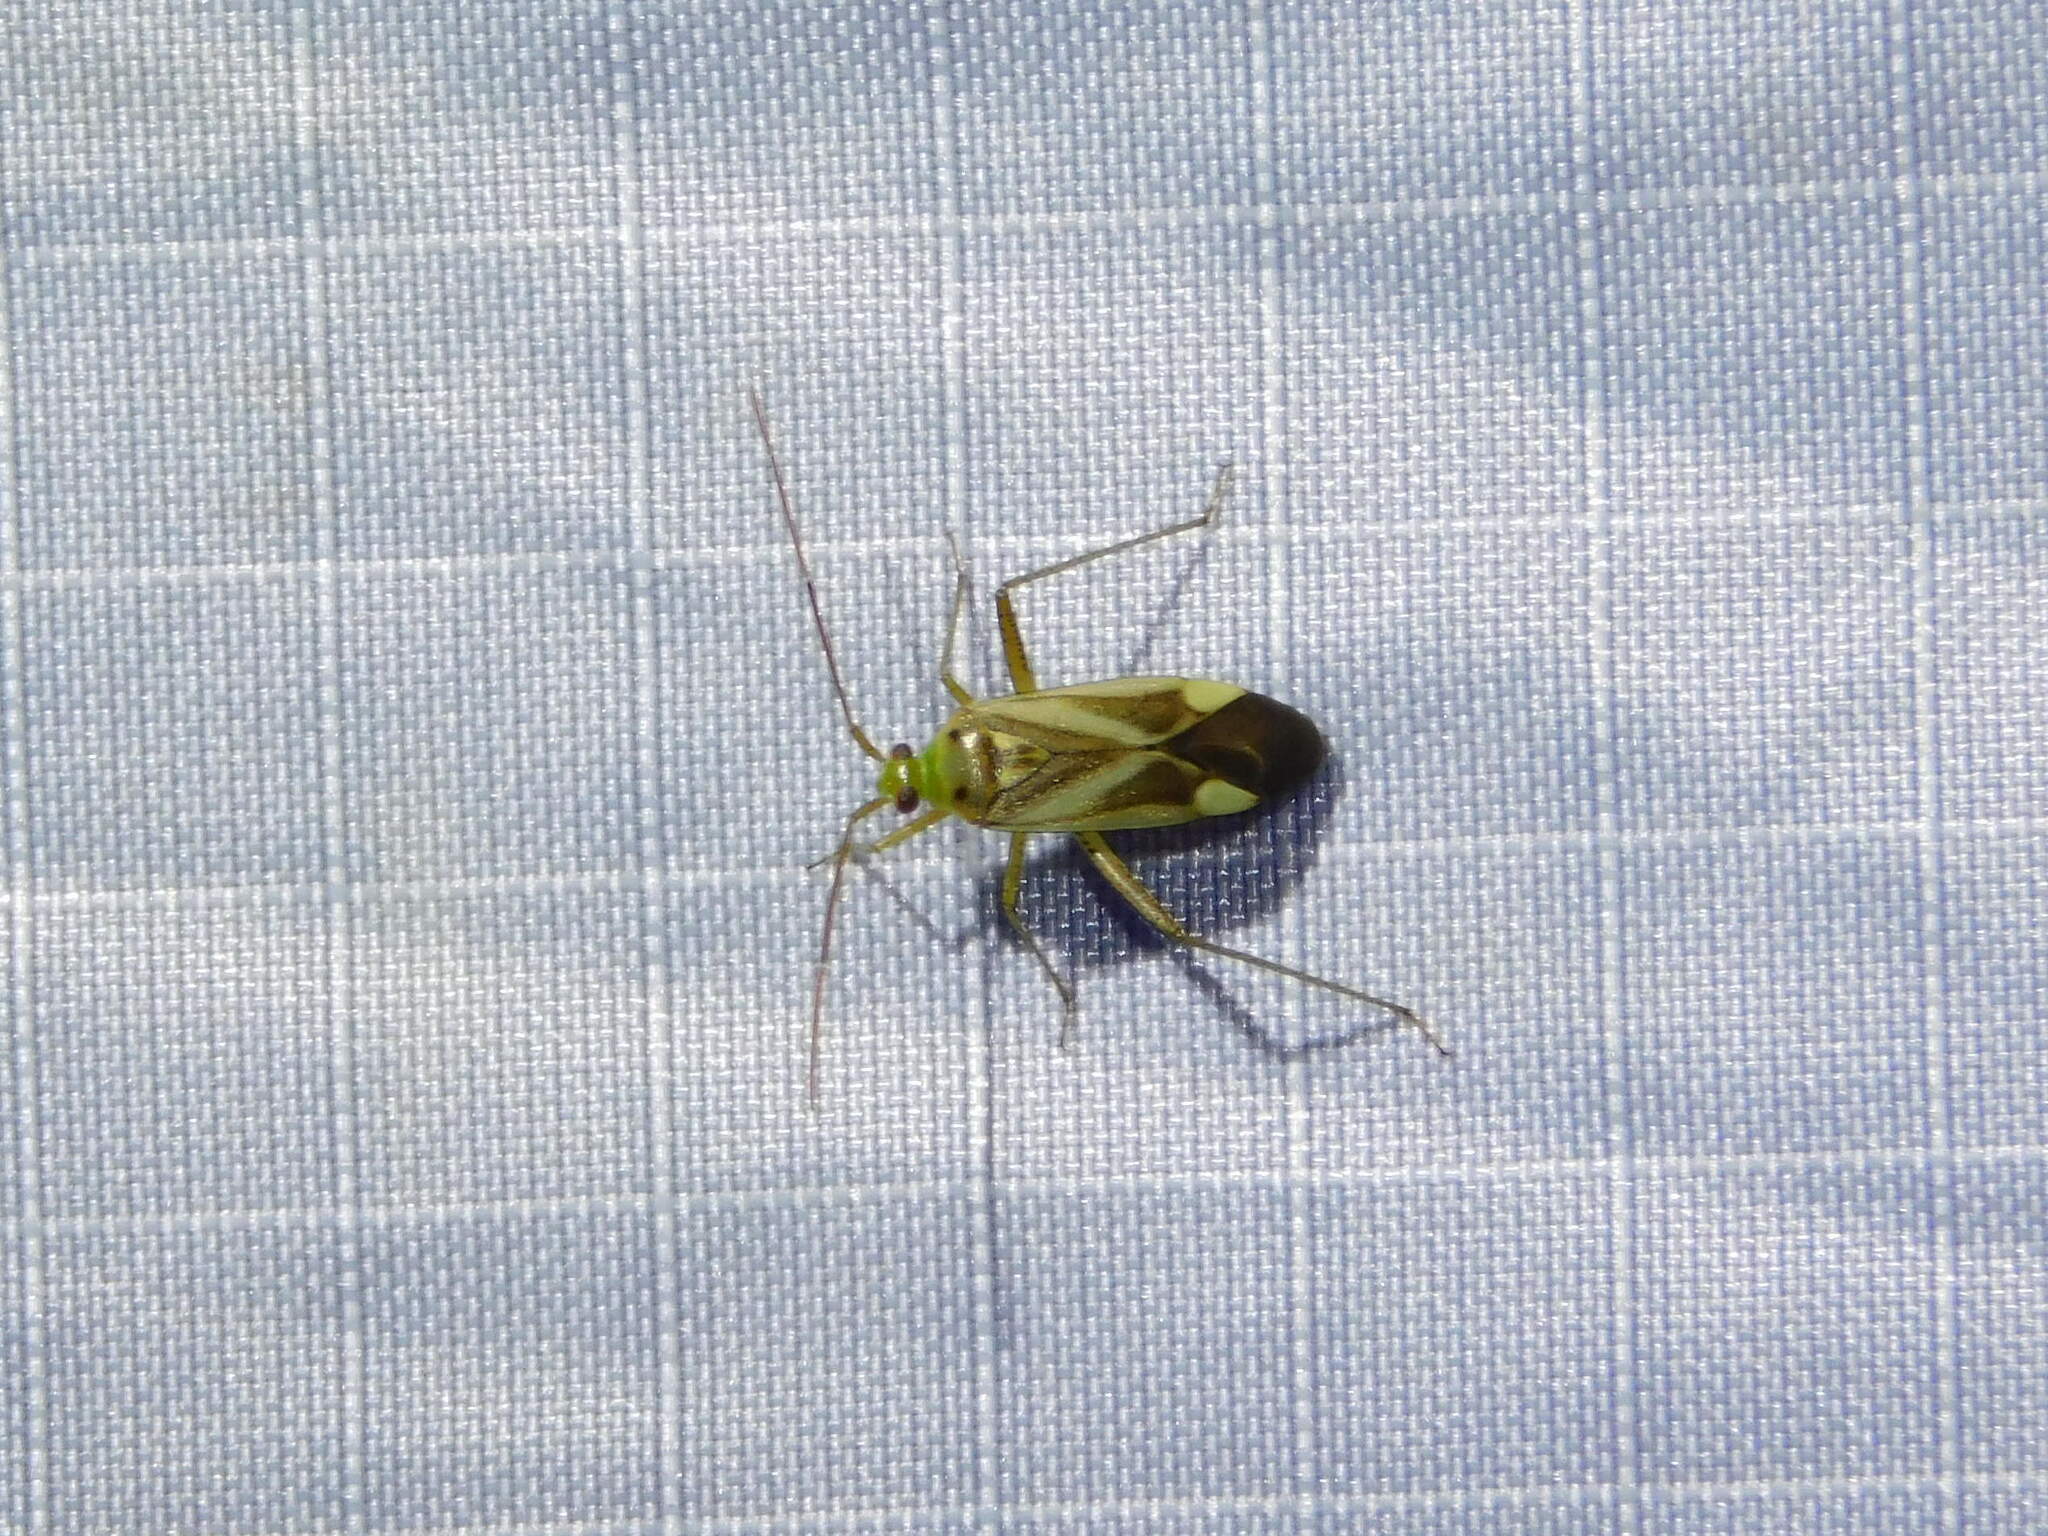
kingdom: Animalia
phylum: Arthropoda
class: Insecta
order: Hemiptera
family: Miridae
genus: Adelphocoris
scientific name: Adelphocoris lineolatus
